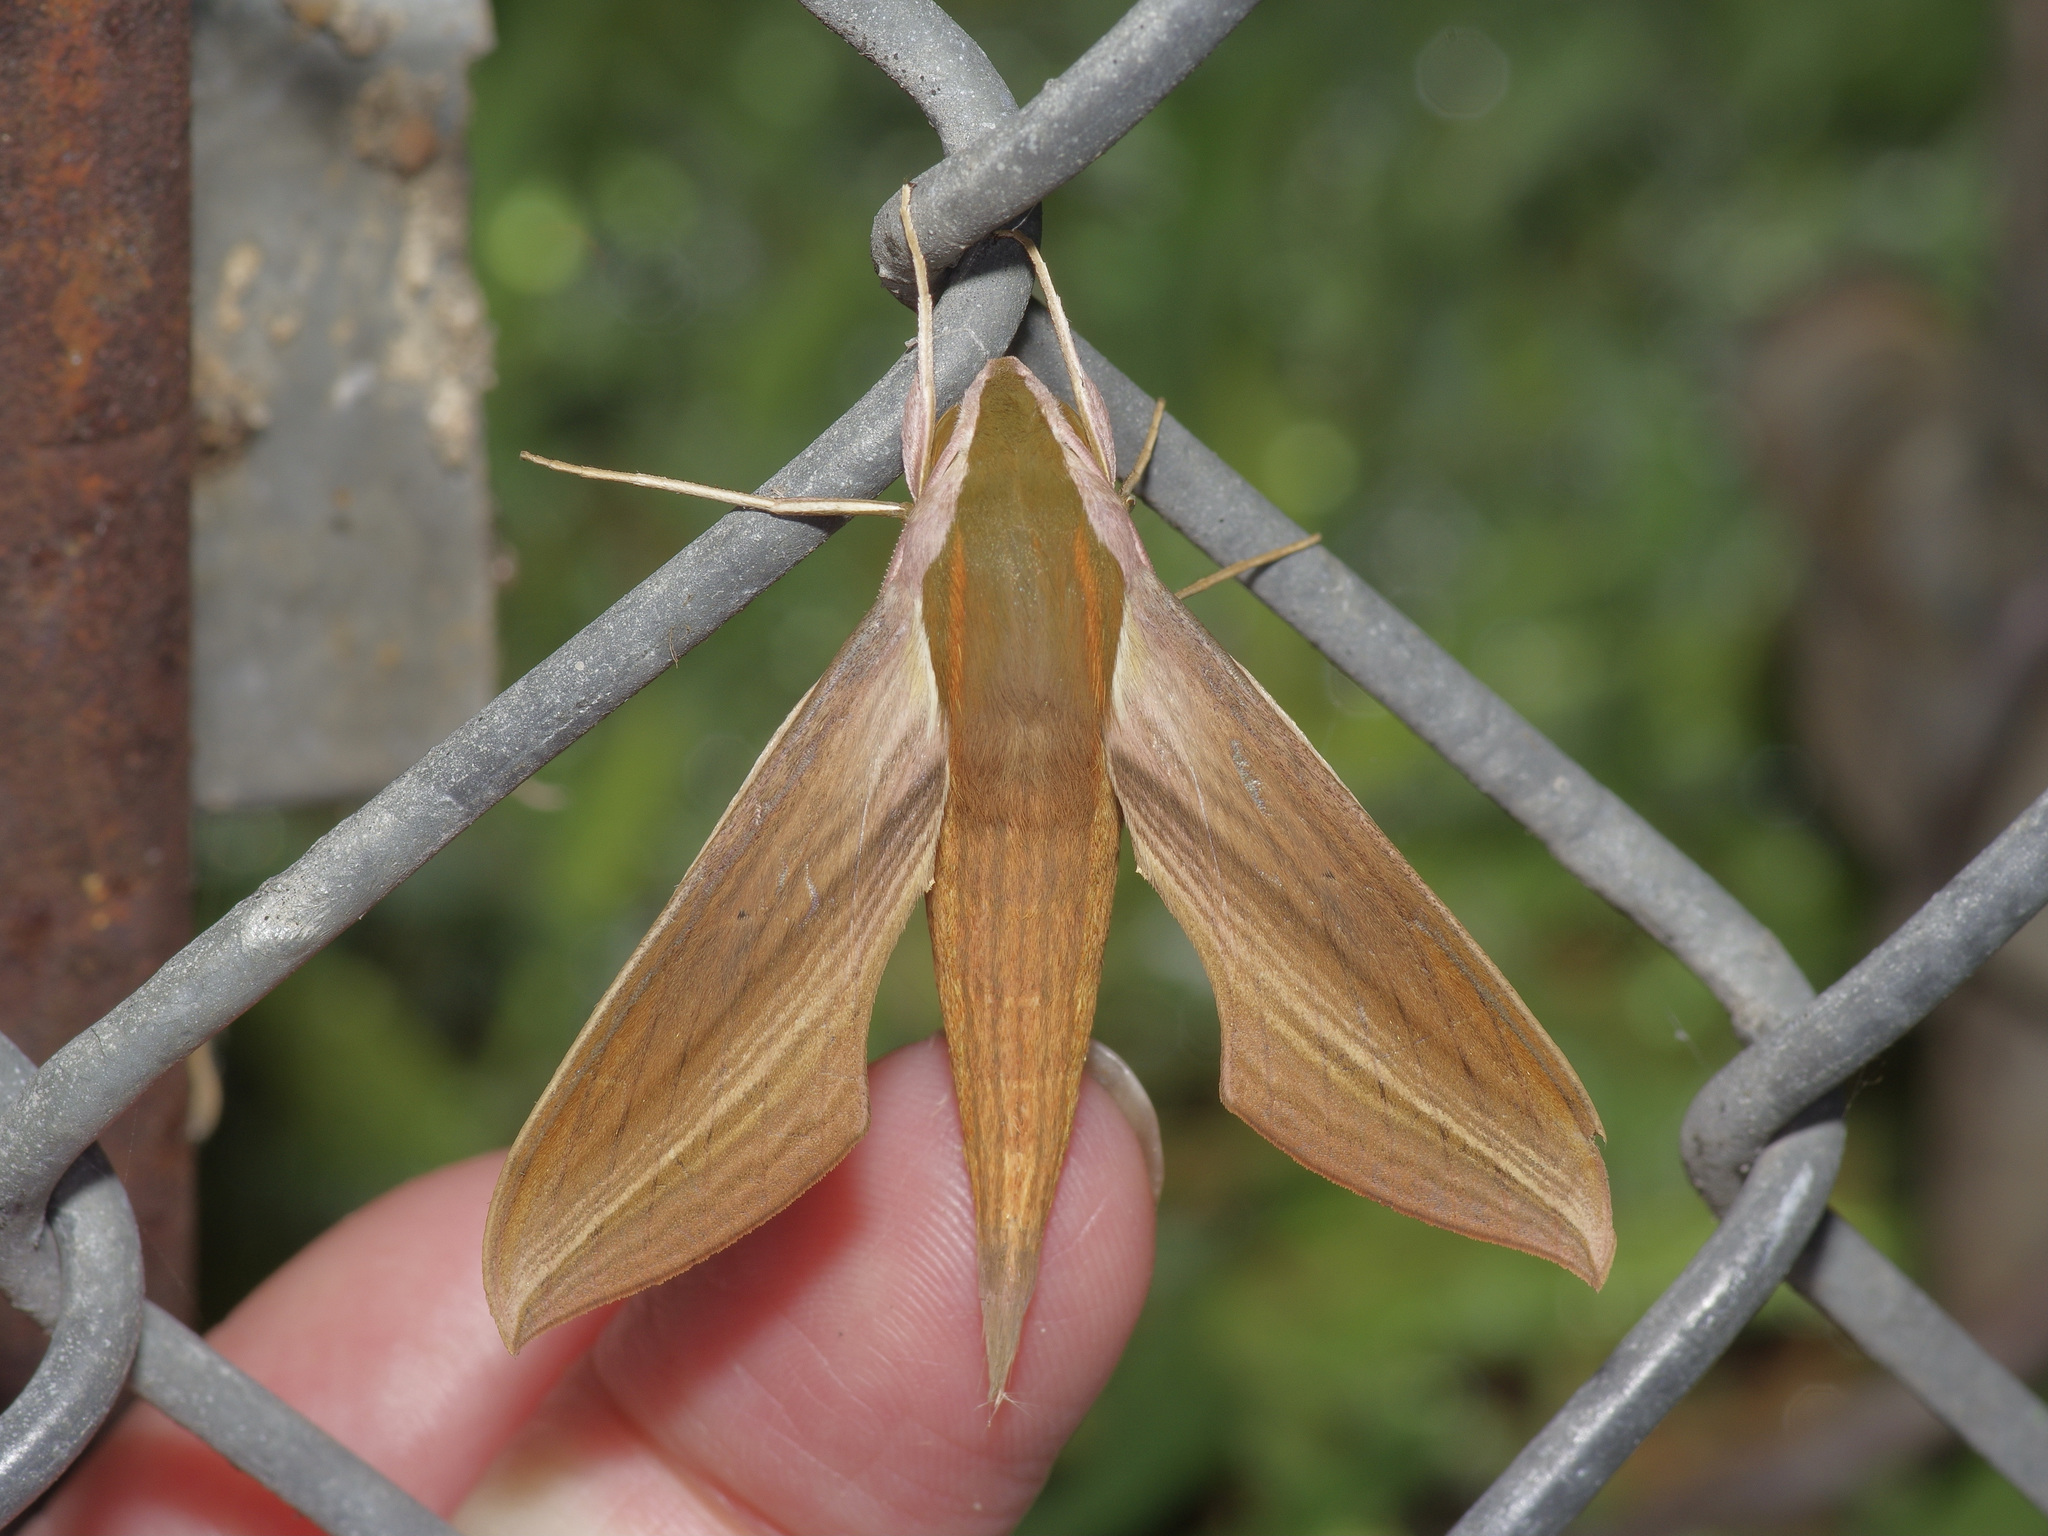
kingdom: Animalia
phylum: Arthropoda
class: Insecta
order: Lepidoptera
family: Sphingidae
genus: Xylophanes
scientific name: Xylophanes tersa
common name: Tersa sphinx
